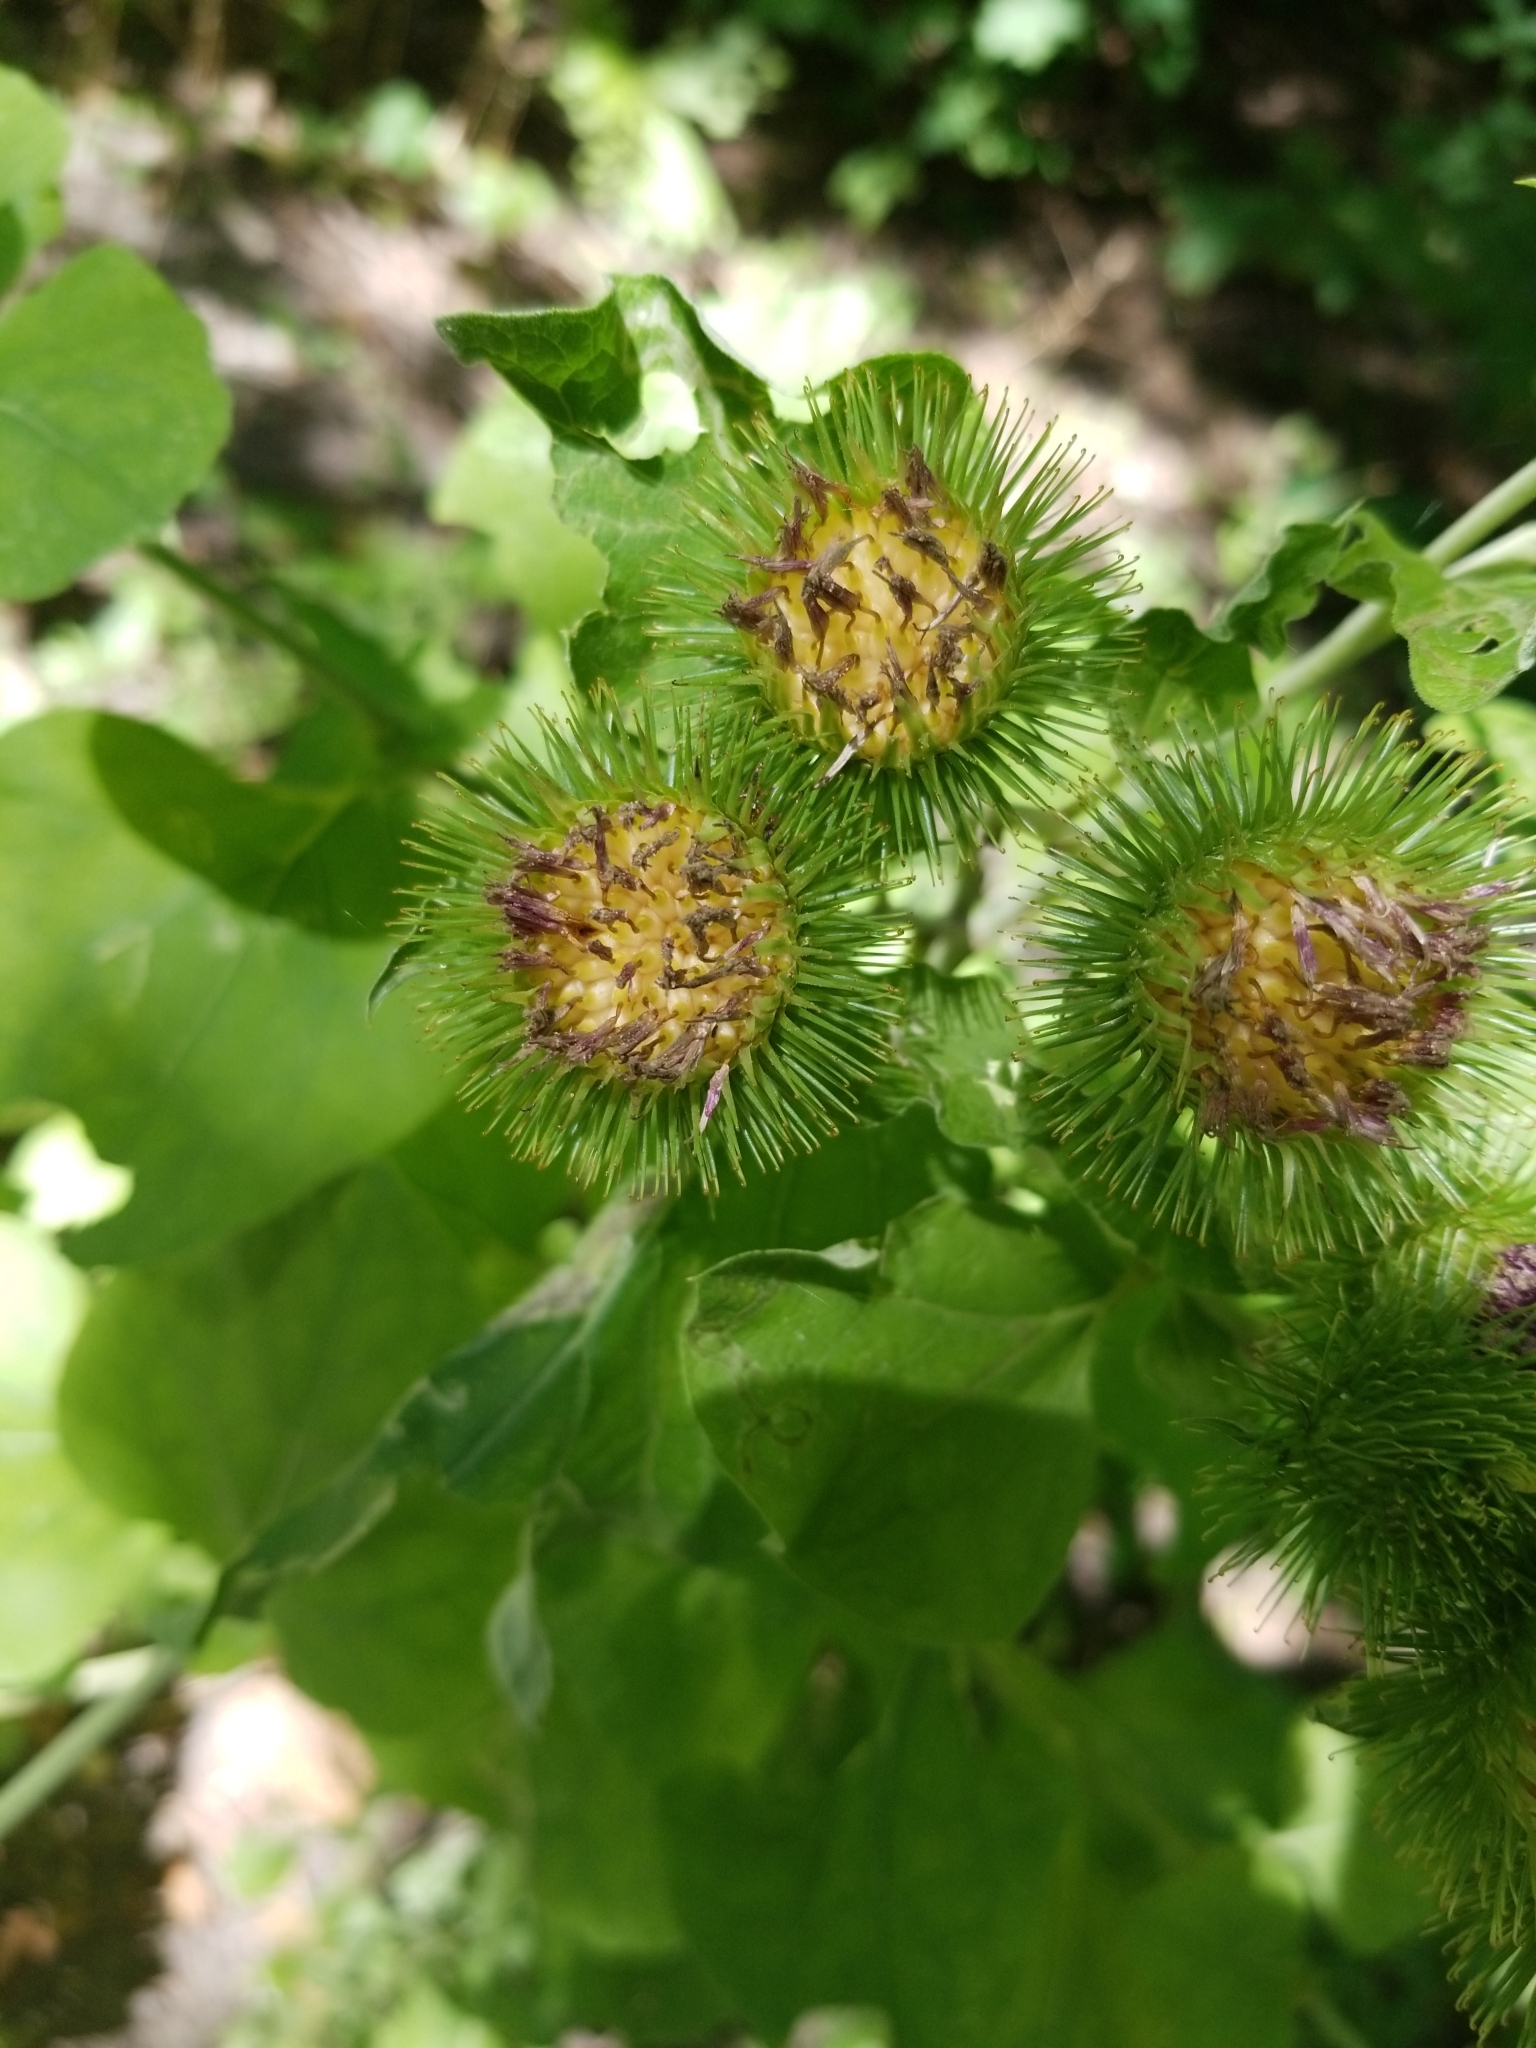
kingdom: Plantae
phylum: Tracheophyta
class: Magnoliopsida
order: Asterales
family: Asteraceae
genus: Arctium
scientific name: Arctium lappa
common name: Greater burdock
